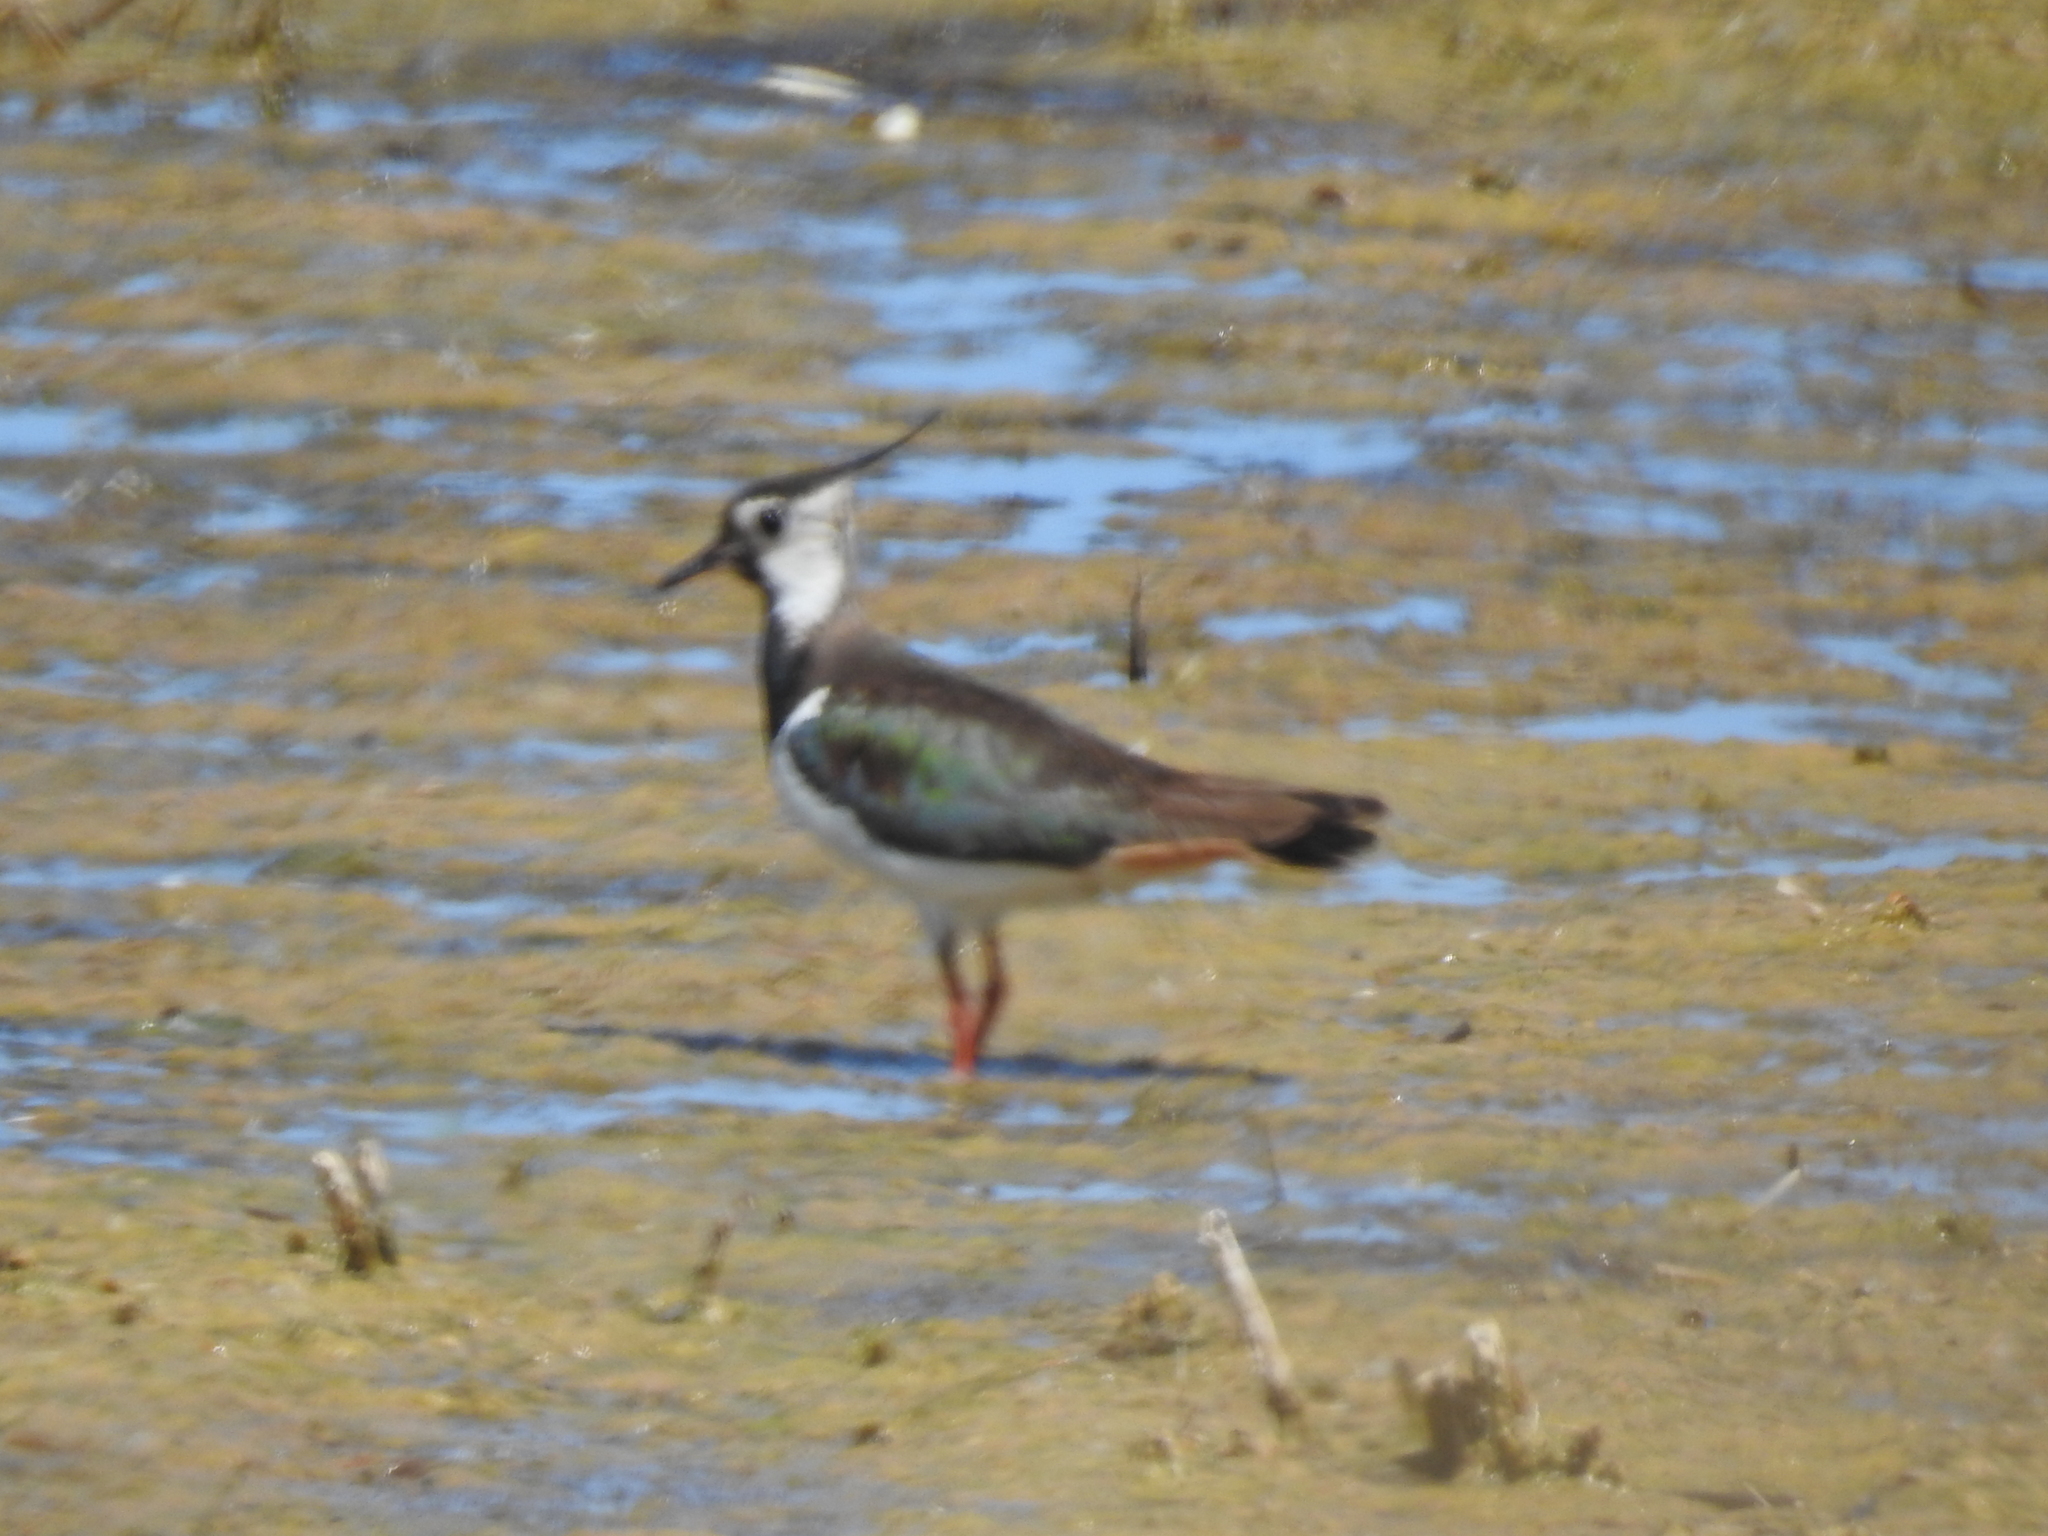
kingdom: Animalia
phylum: Chordata
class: Aves
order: Charadriiformes
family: Charadriidae
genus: Vanellus
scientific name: Vanellus vanellus
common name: Northern lapwing
